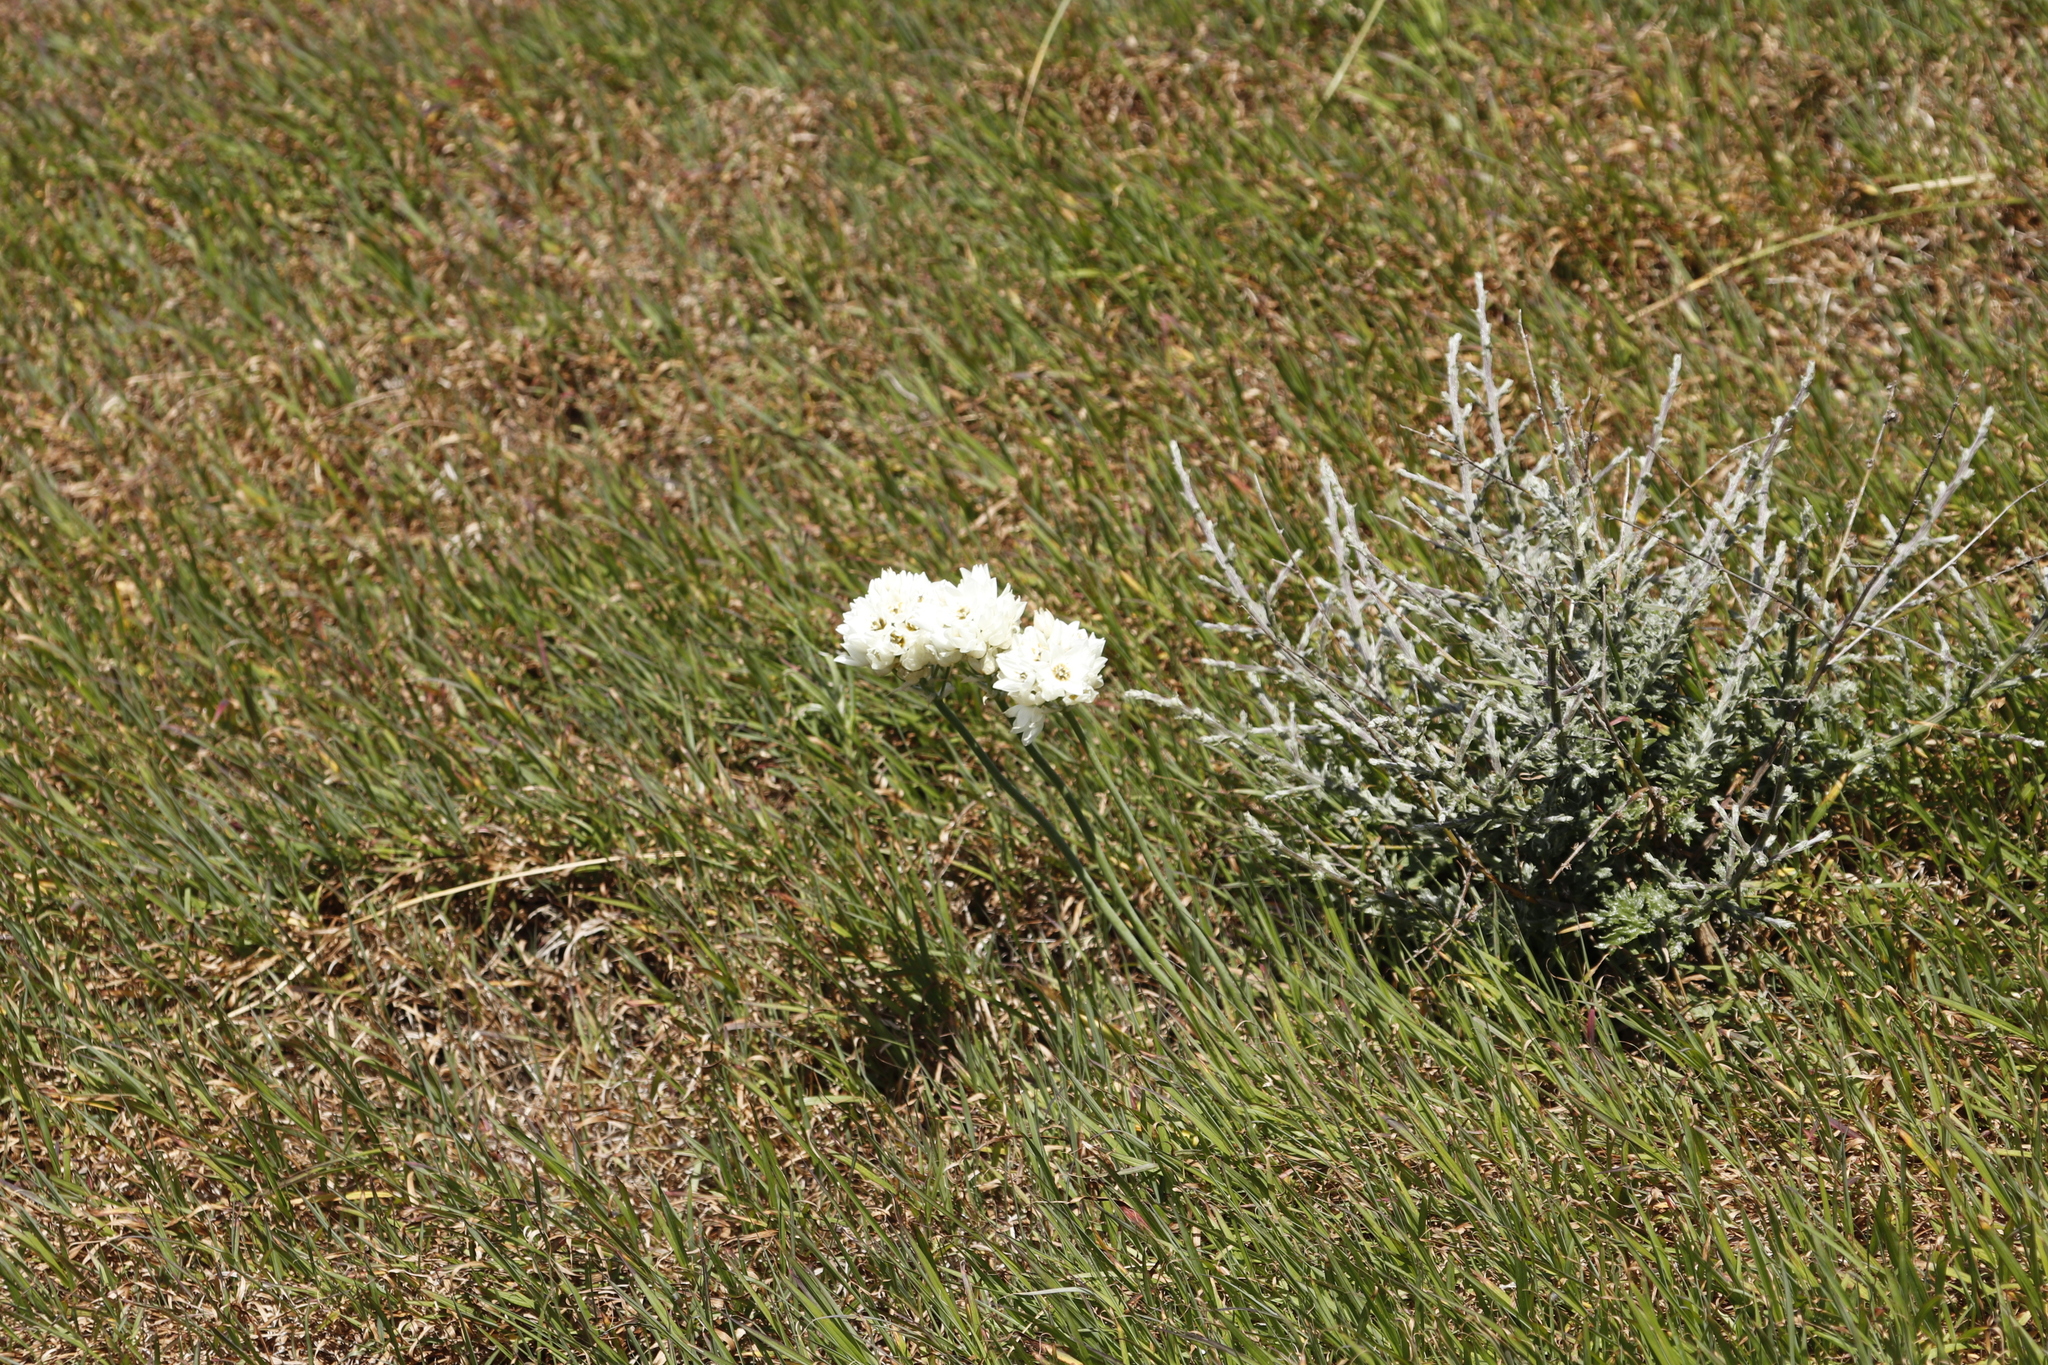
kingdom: Plantae
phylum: Tracheophyta
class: Liliopsida
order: Asparagales
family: Asparagaceae
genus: Ornithogalum
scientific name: Ornithogalum thyrsoides
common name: Chincherinchee
